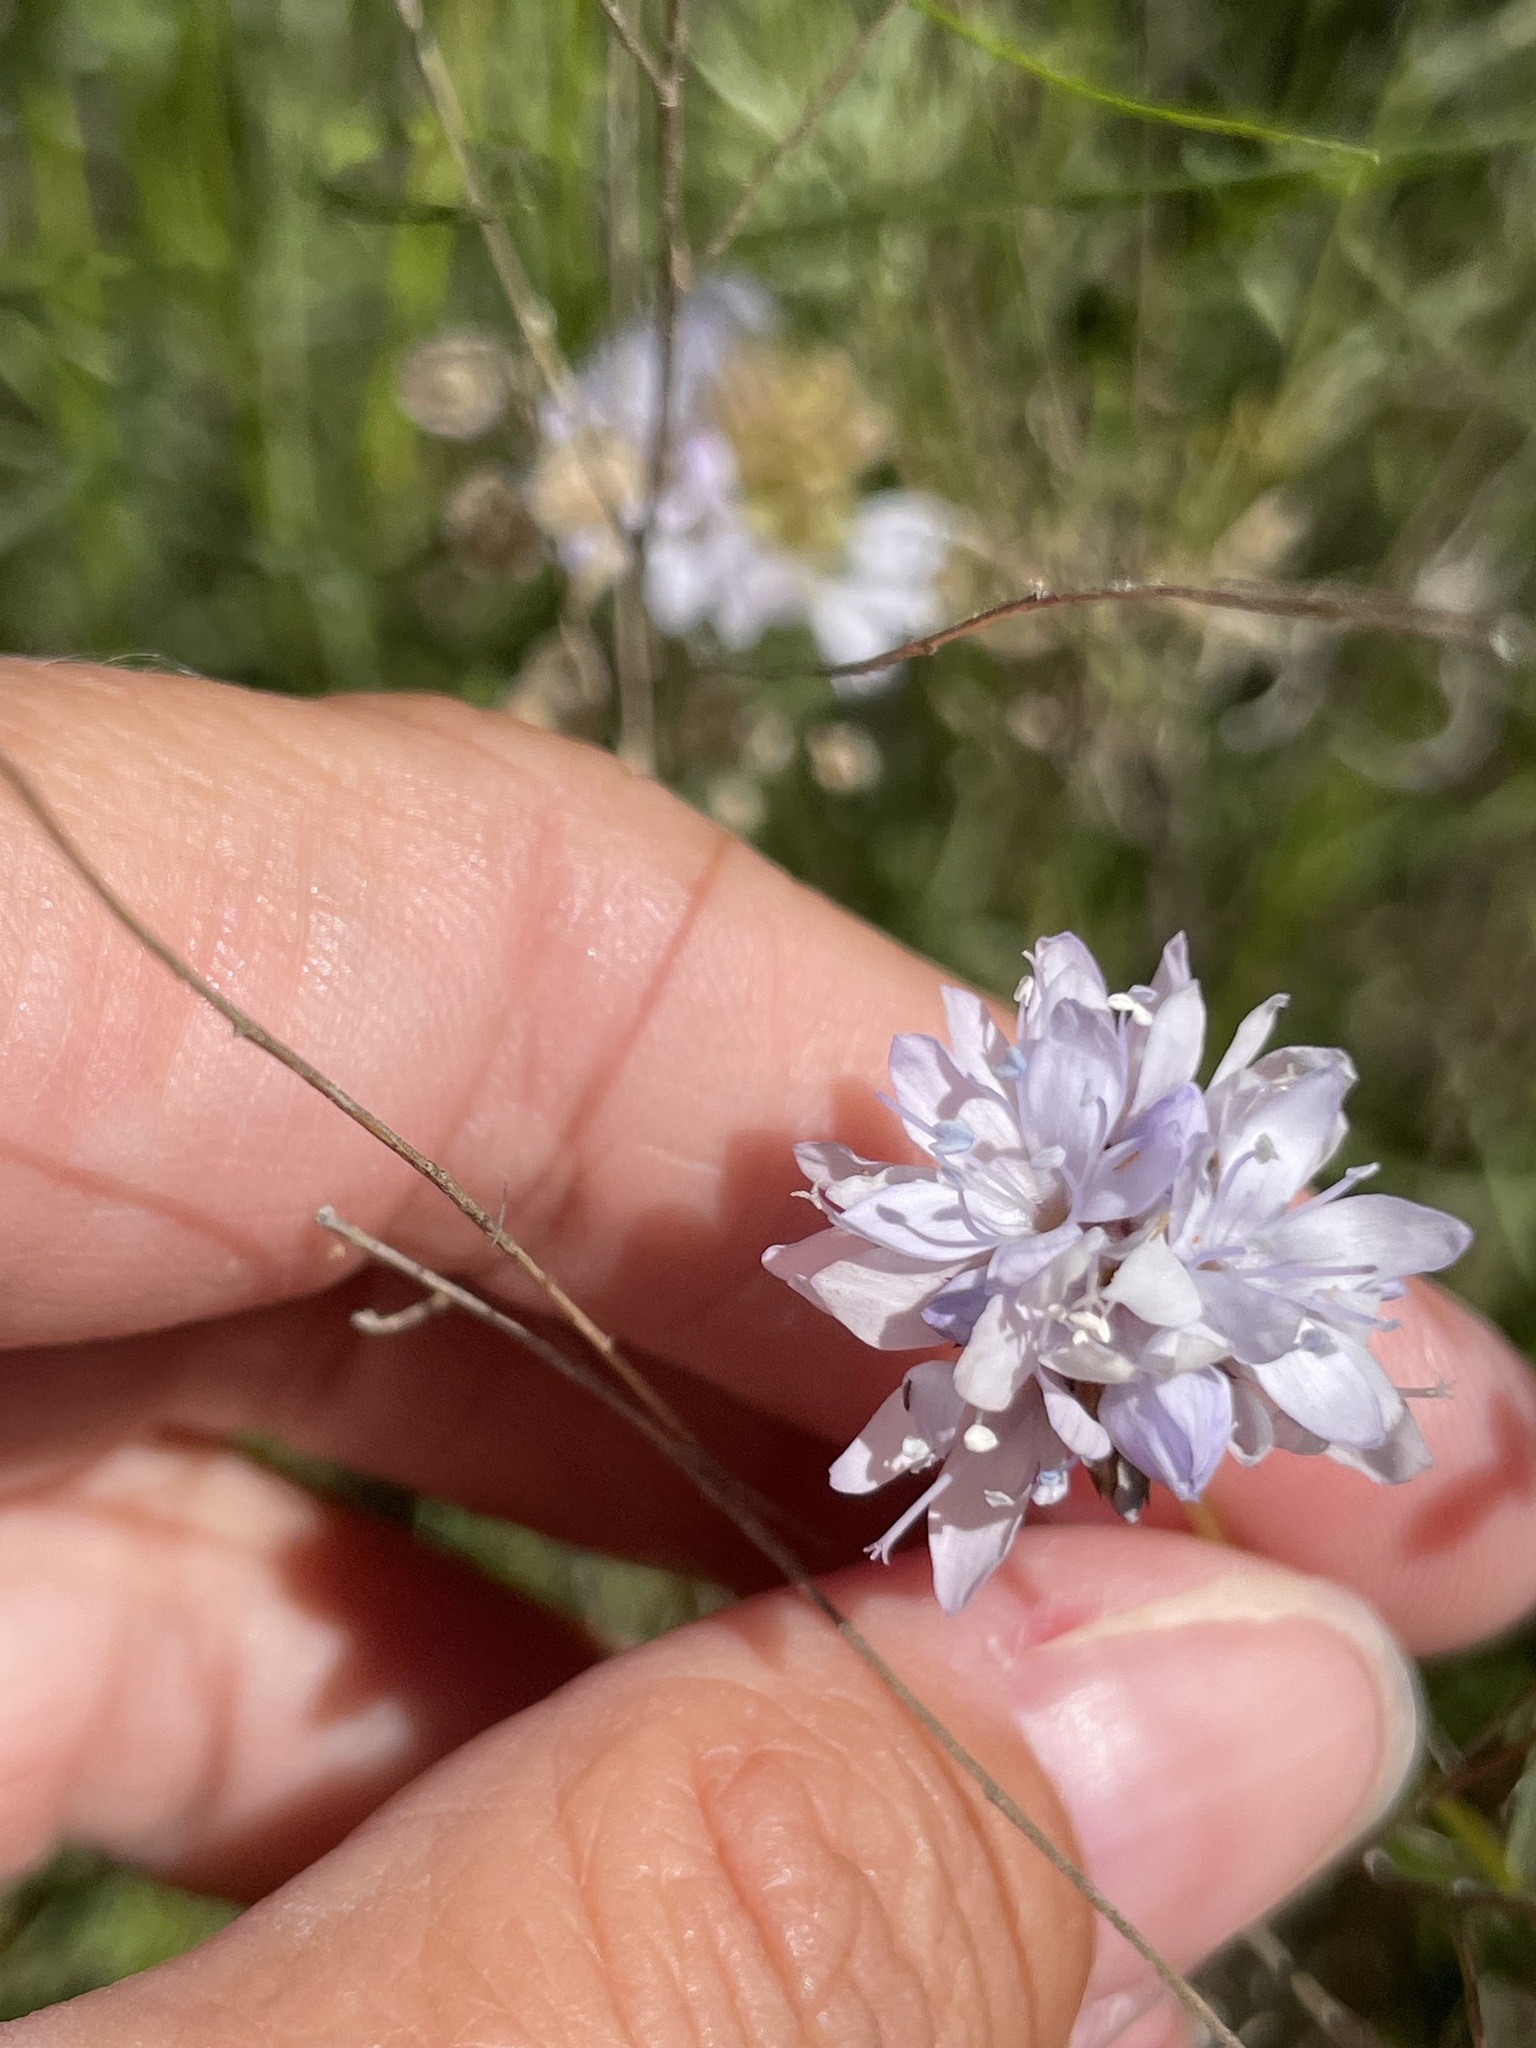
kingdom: Plantae
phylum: Tracheophyta
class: Magnoliopsida
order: Ericales
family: Polemoniaceae
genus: Gilia
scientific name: Gilia capitata
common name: Bluehead gilia
